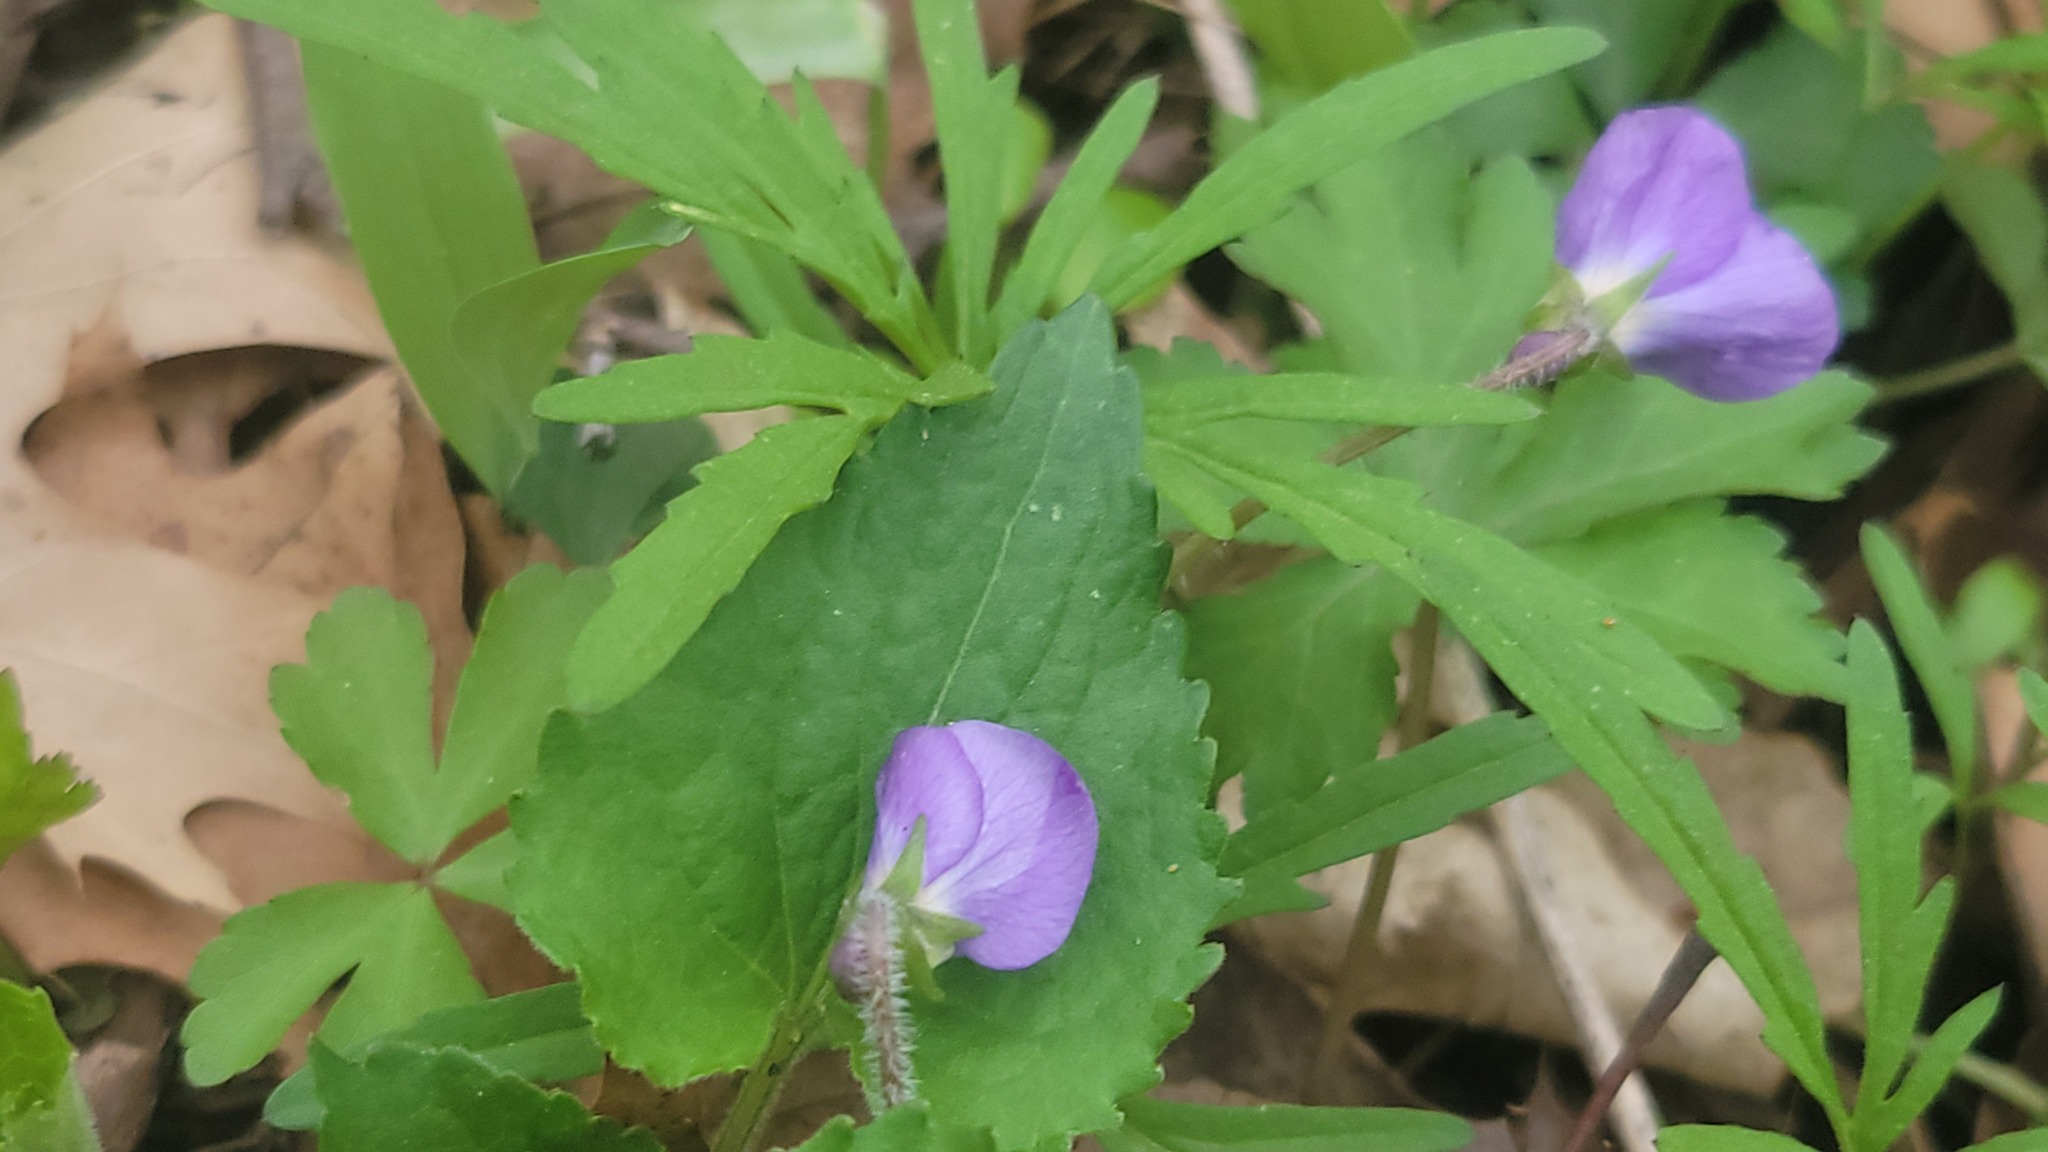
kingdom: Plantae
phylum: Tracheophyta
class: Magnoliopsida
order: Malpighiales
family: Violaceae
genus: Viola
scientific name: Viola sororia
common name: Dooryard violet
